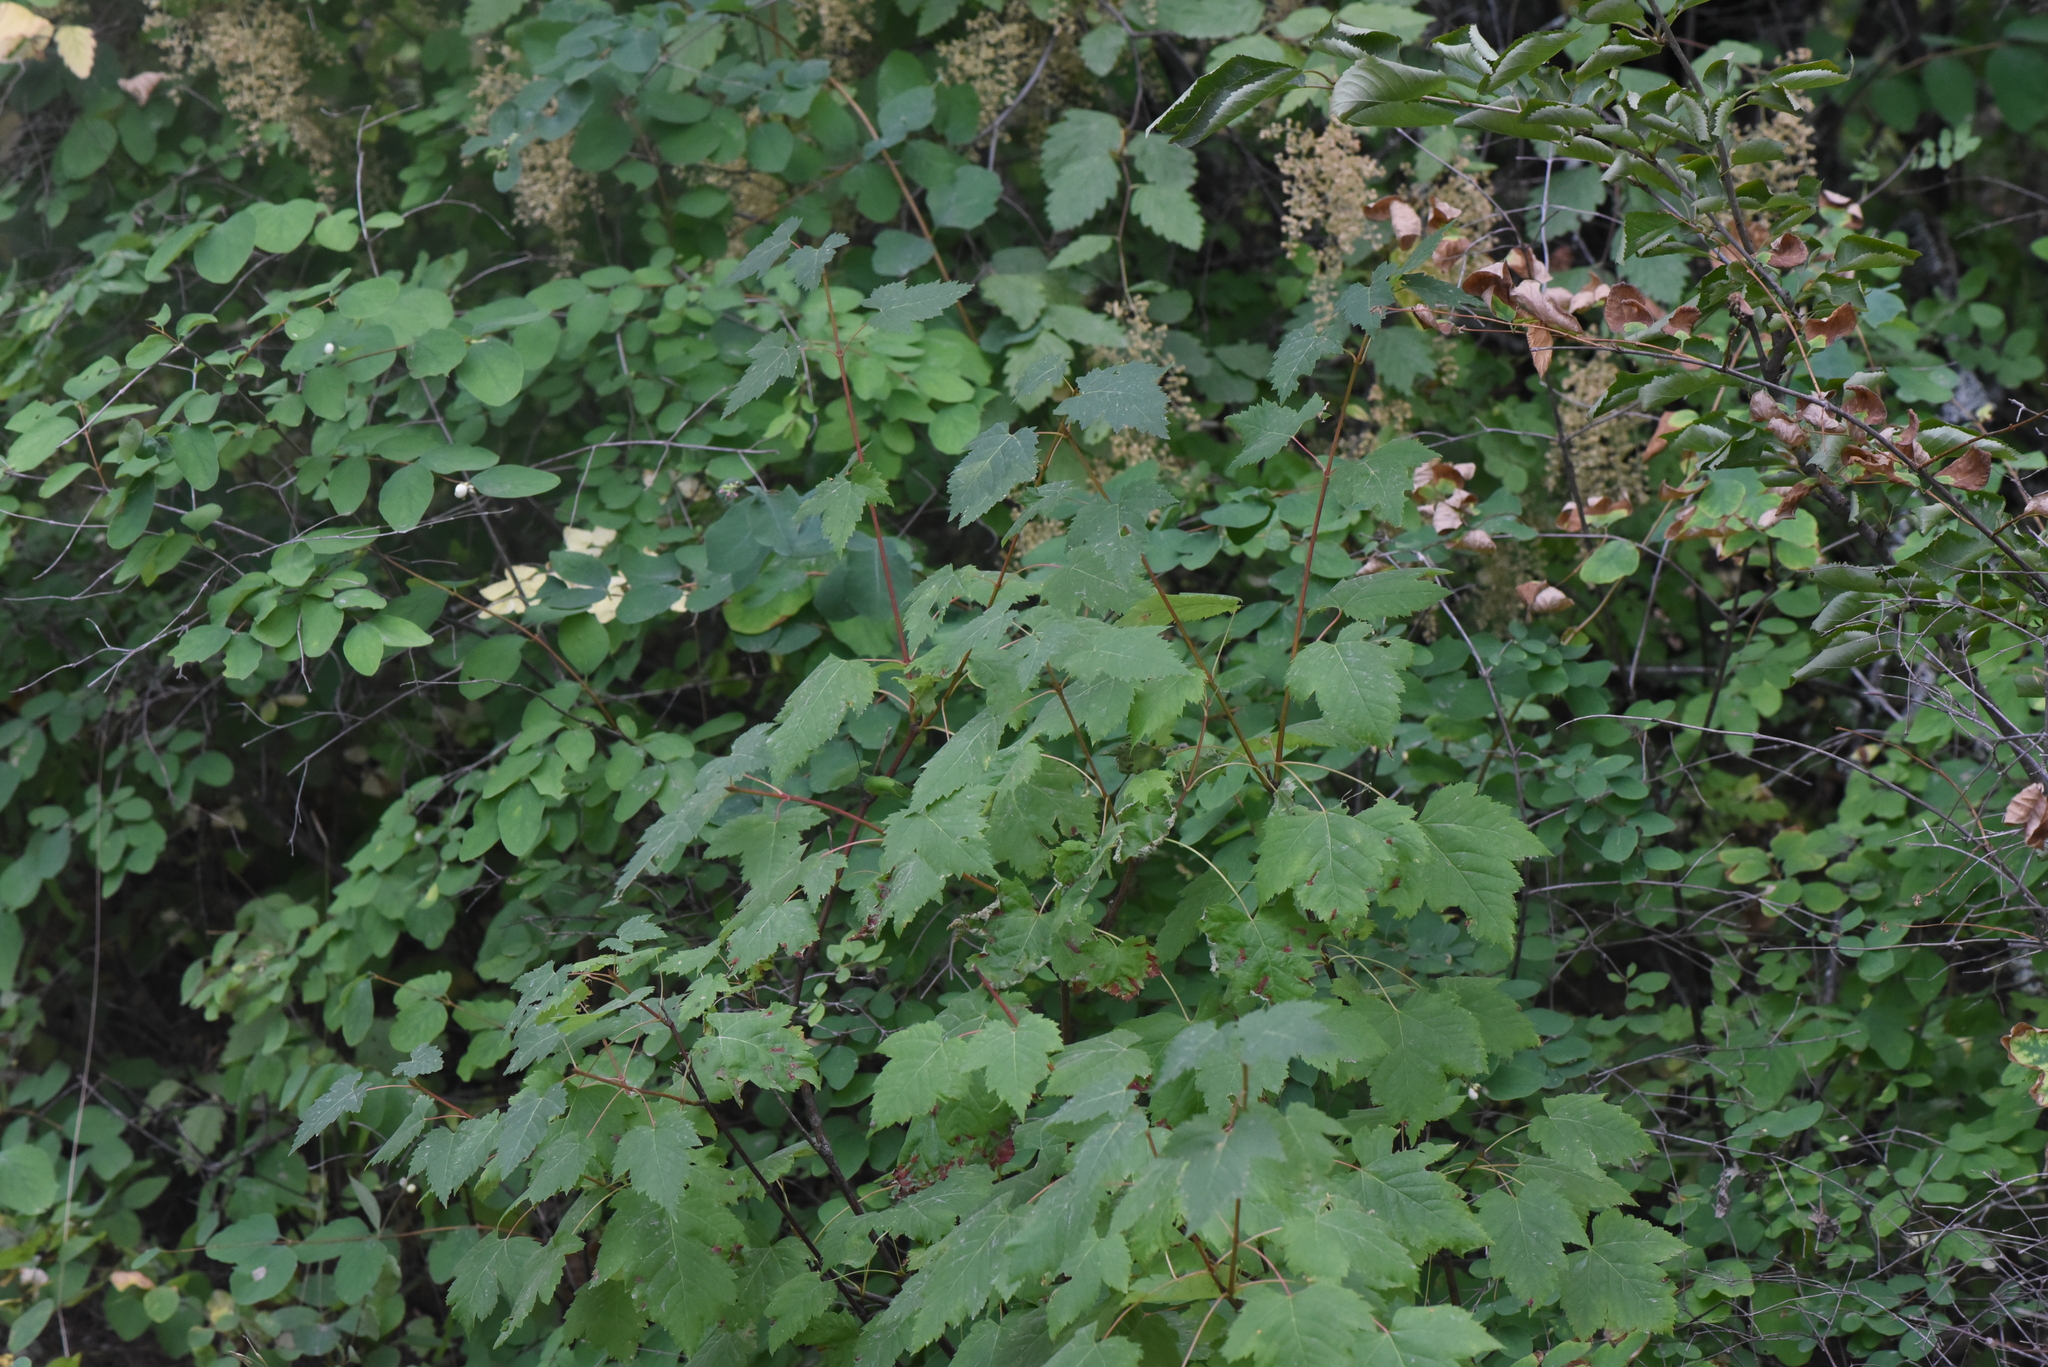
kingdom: Plantae
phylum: Tracheophyta
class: Magnoliopsida
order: Sapindales
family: Sapindaceae
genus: Acer
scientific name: Acer glabrum
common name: Rocky mountain maple
